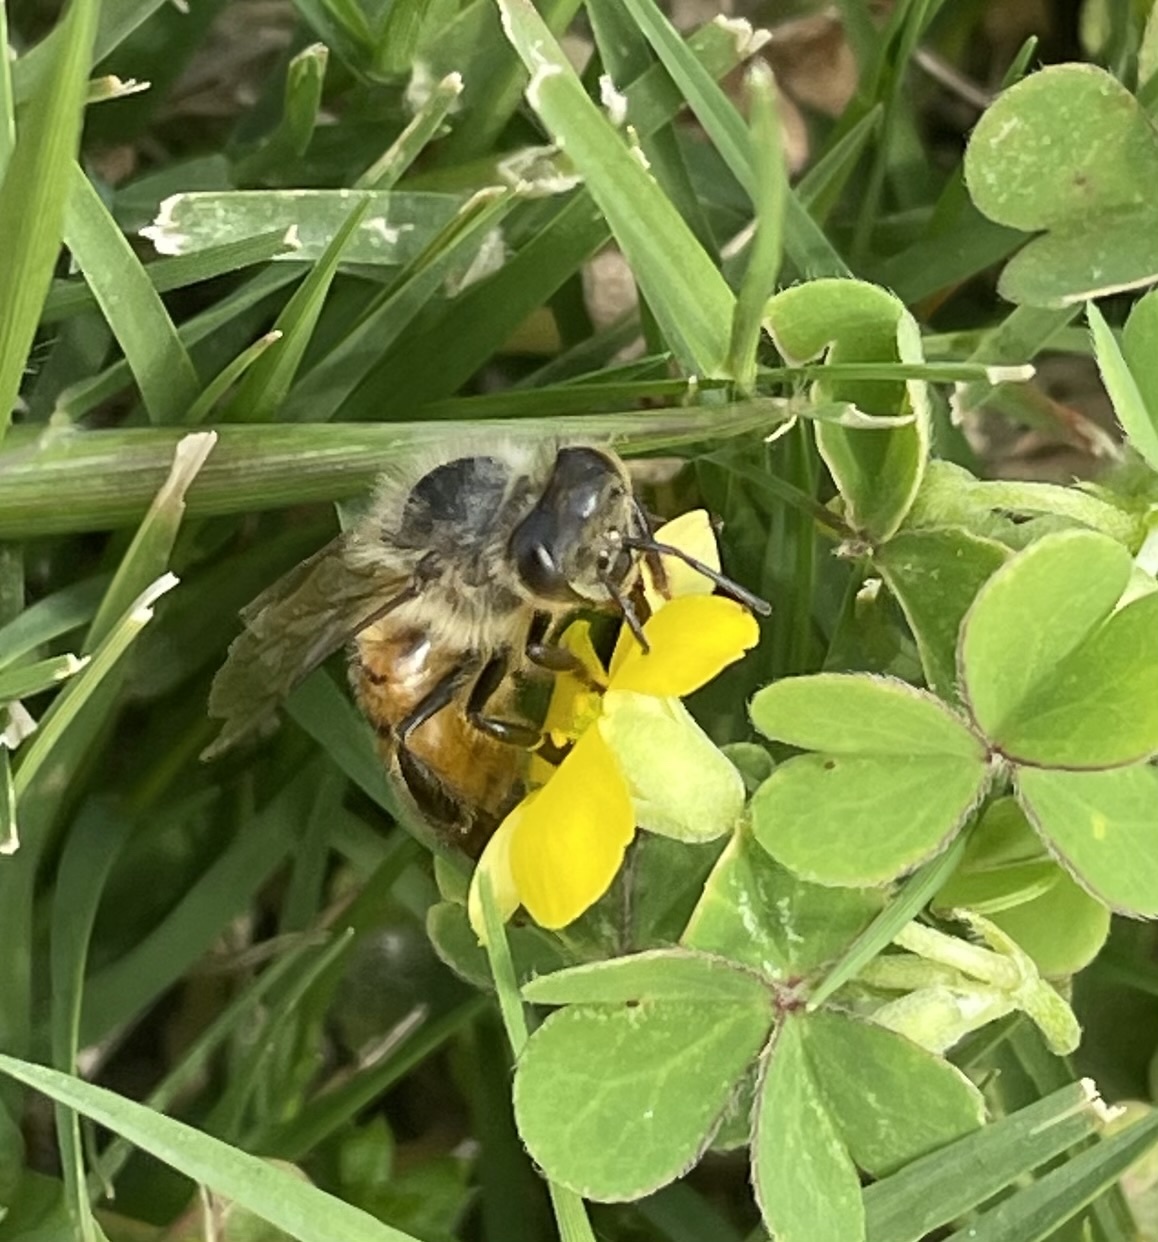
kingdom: Animalia
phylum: Arthropoda
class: Insecta
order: Hymenoptera
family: Apidae
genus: Apis
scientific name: Apis mellifera
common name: Honey bee
